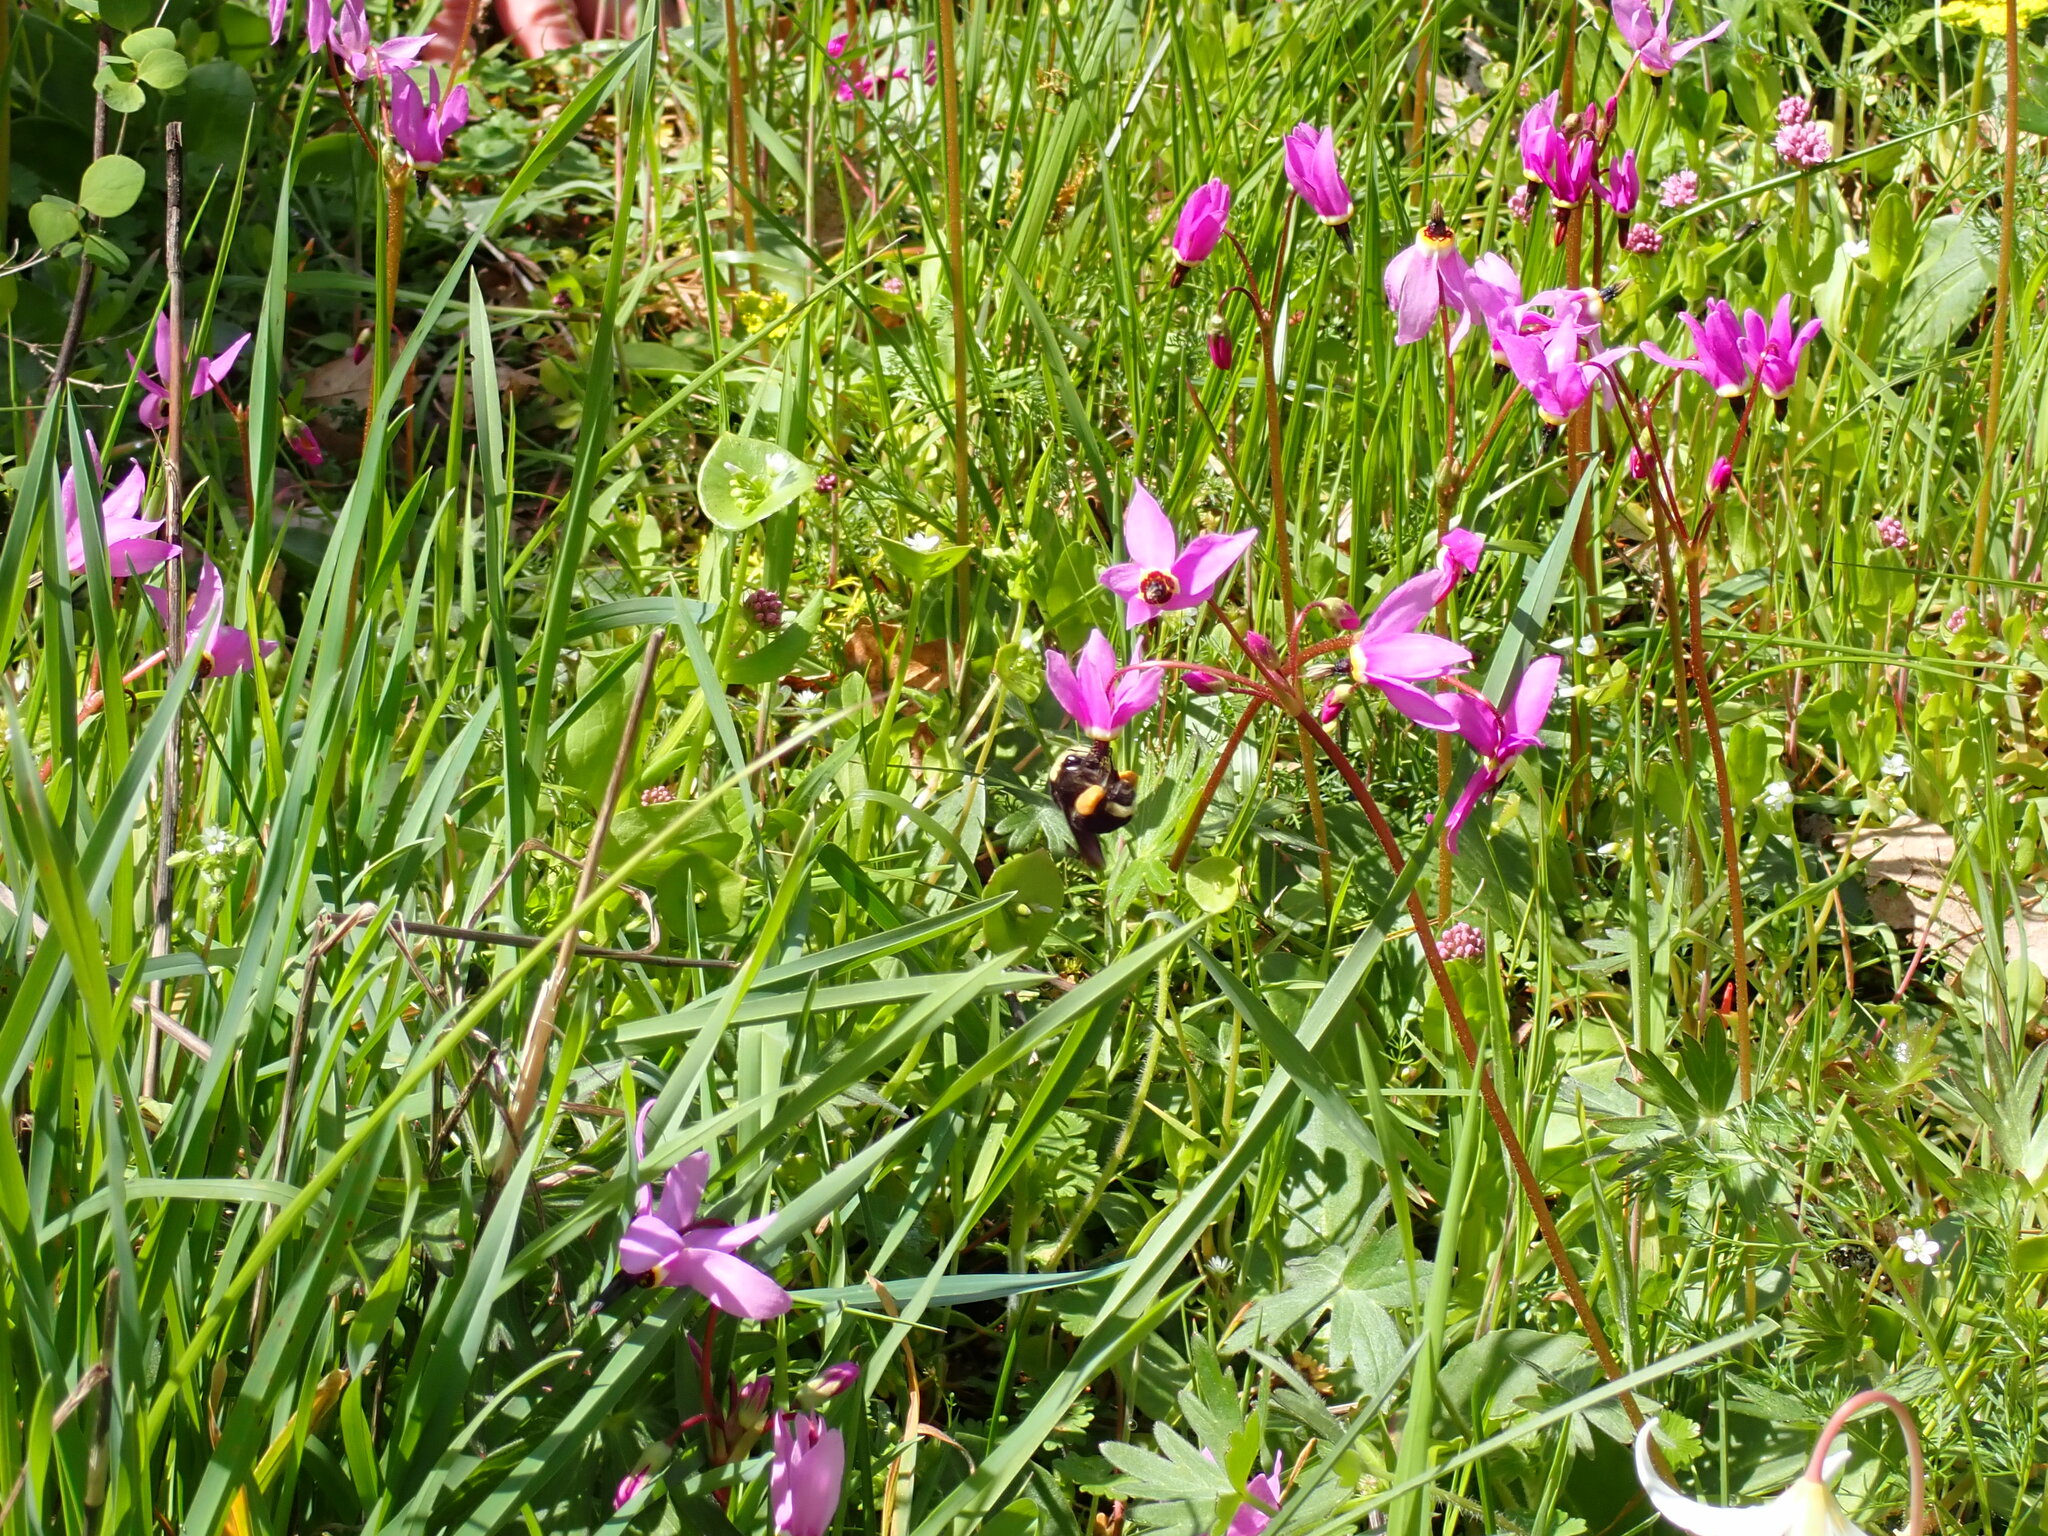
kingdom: Animalia
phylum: Arthropoda
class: Insecta
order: Hymenoptera
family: Apidae
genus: Bombus
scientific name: Bombus vosnesenskii
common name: Vosnesensky bumble bee
